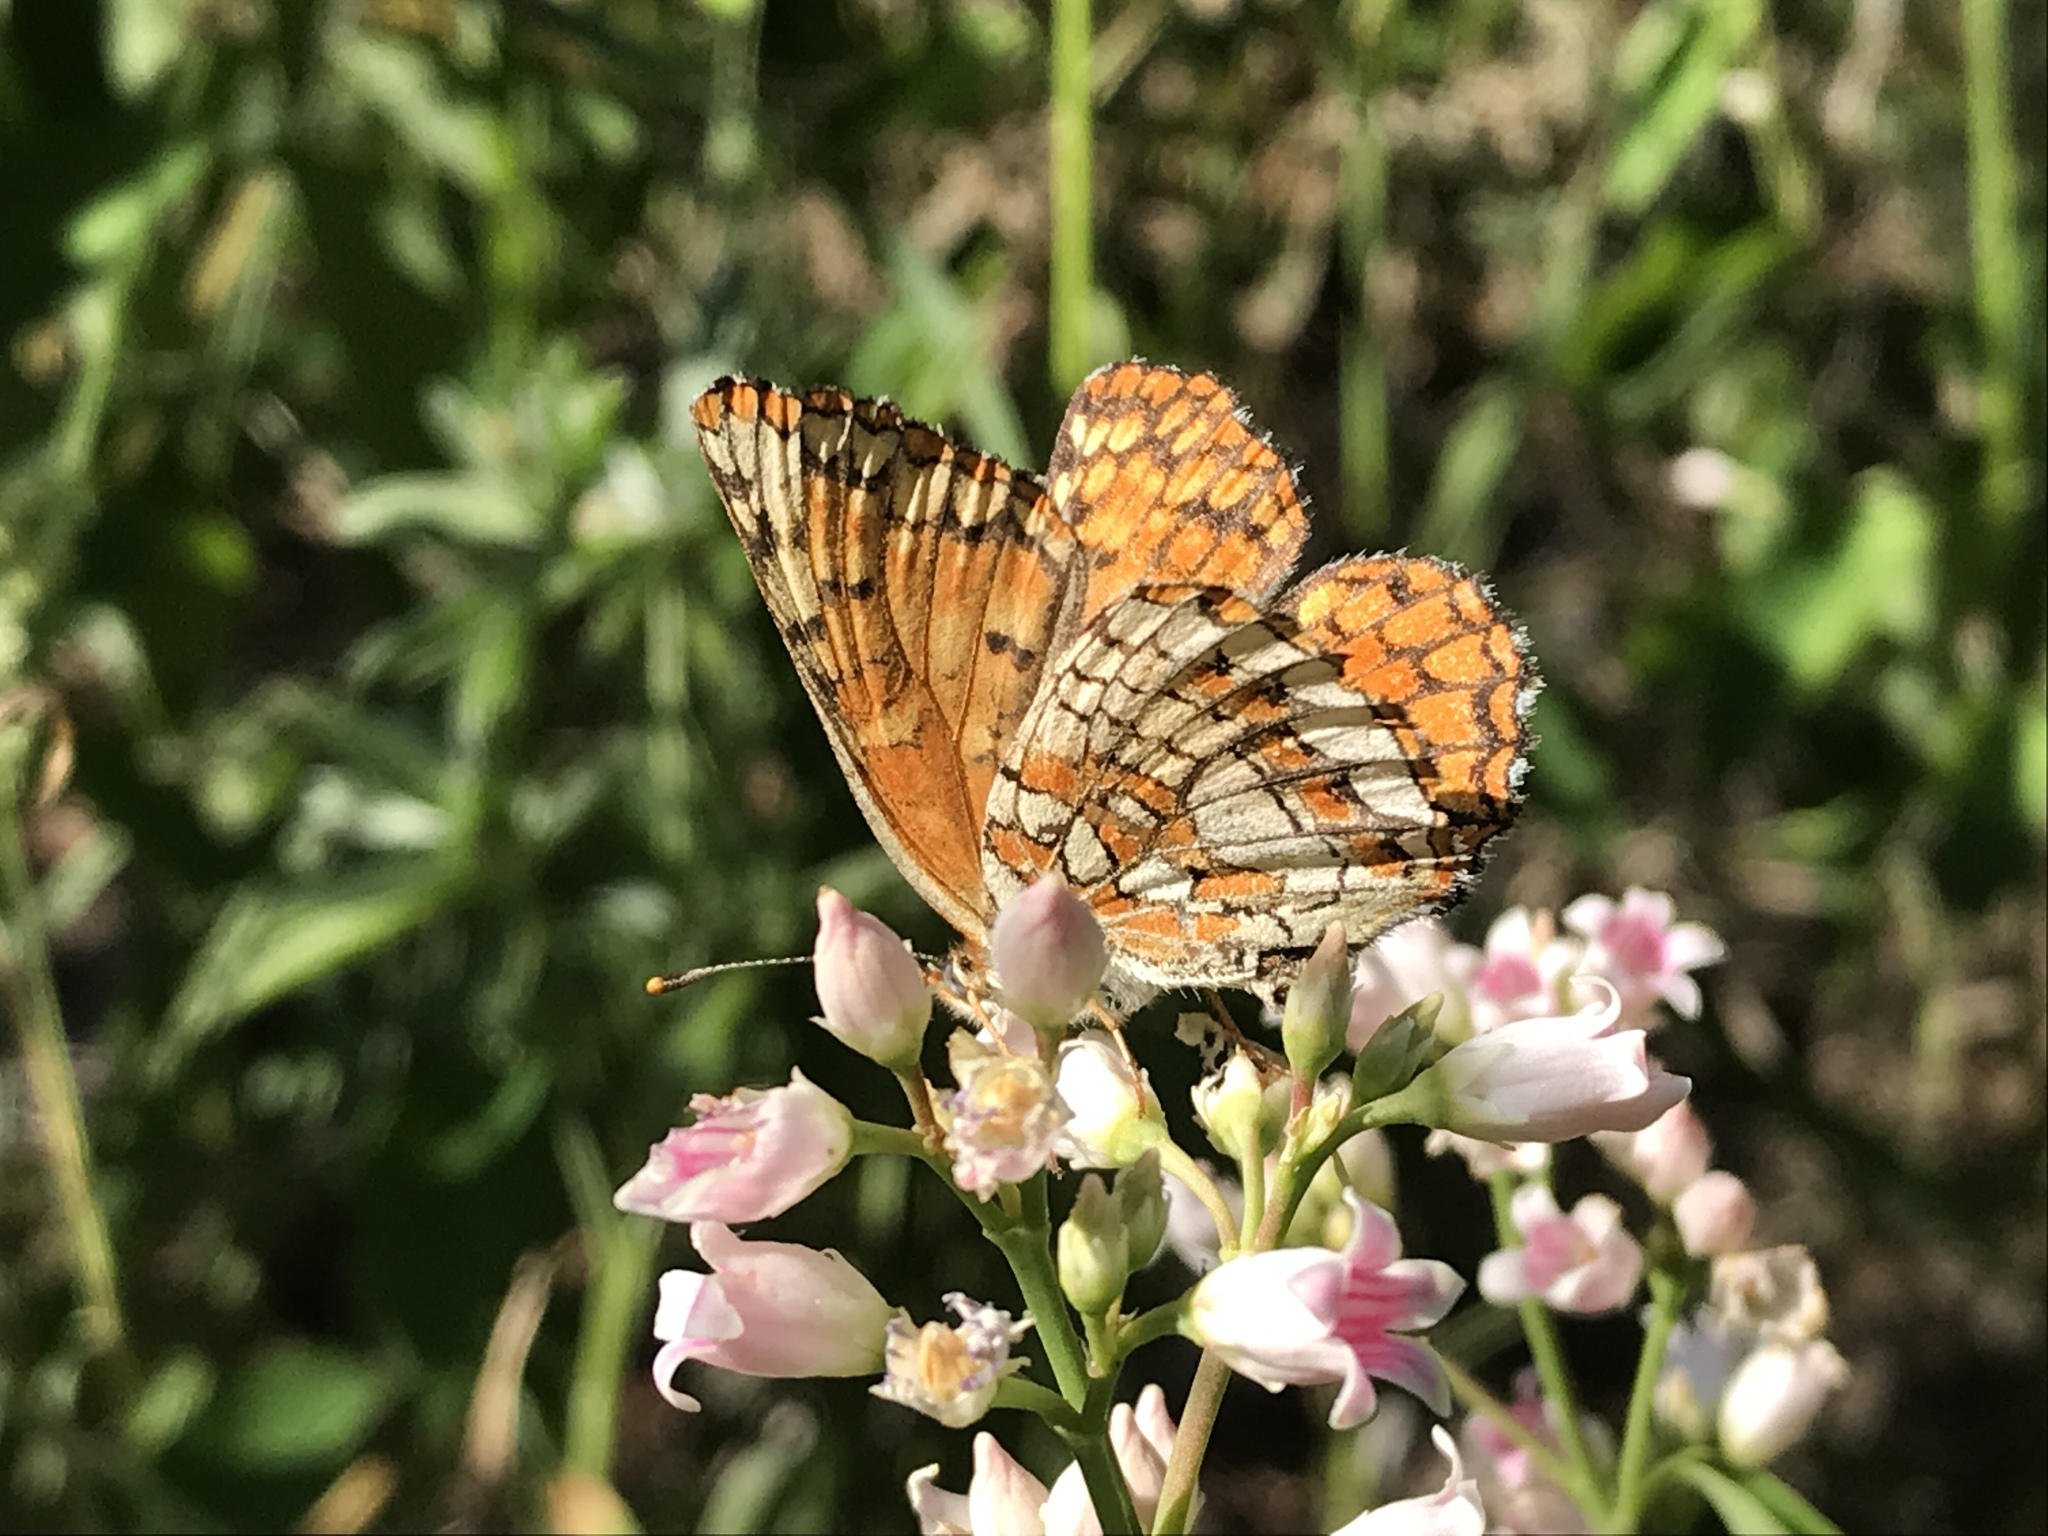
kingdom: Animalia
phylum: Arthropoda
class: Insecta
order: Lepidoptera
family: Nymphalidae
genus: Chlosyne
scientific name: Chlosyne palla
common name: Northern checkerspot
